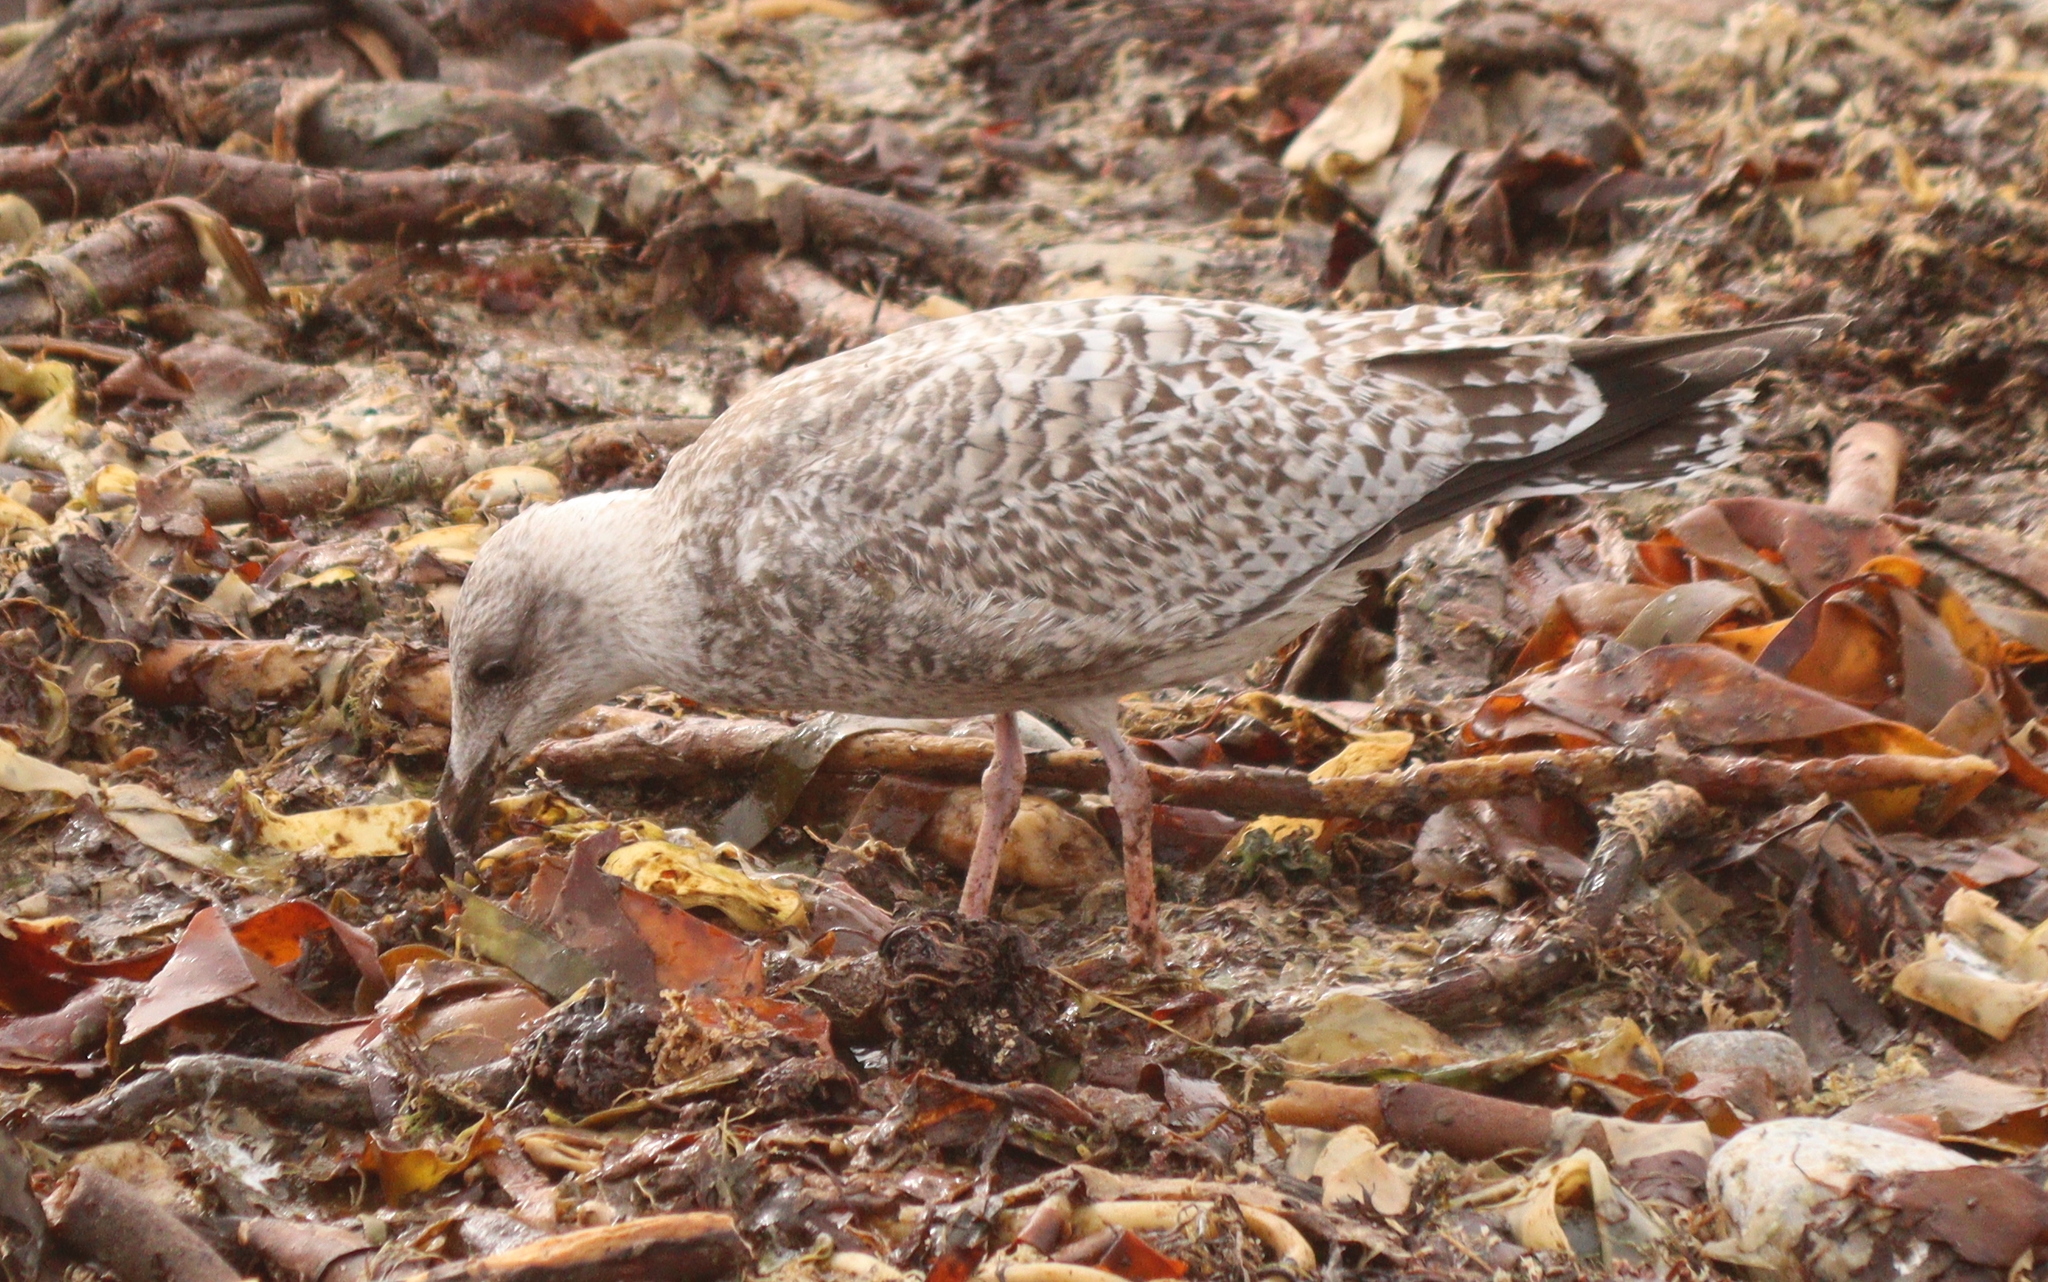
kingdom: Animalia
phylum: Chordata
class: Aves
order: Charadriiformes
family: Laridae
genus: Larus
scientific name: Larus argentatus
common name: Herring gull
